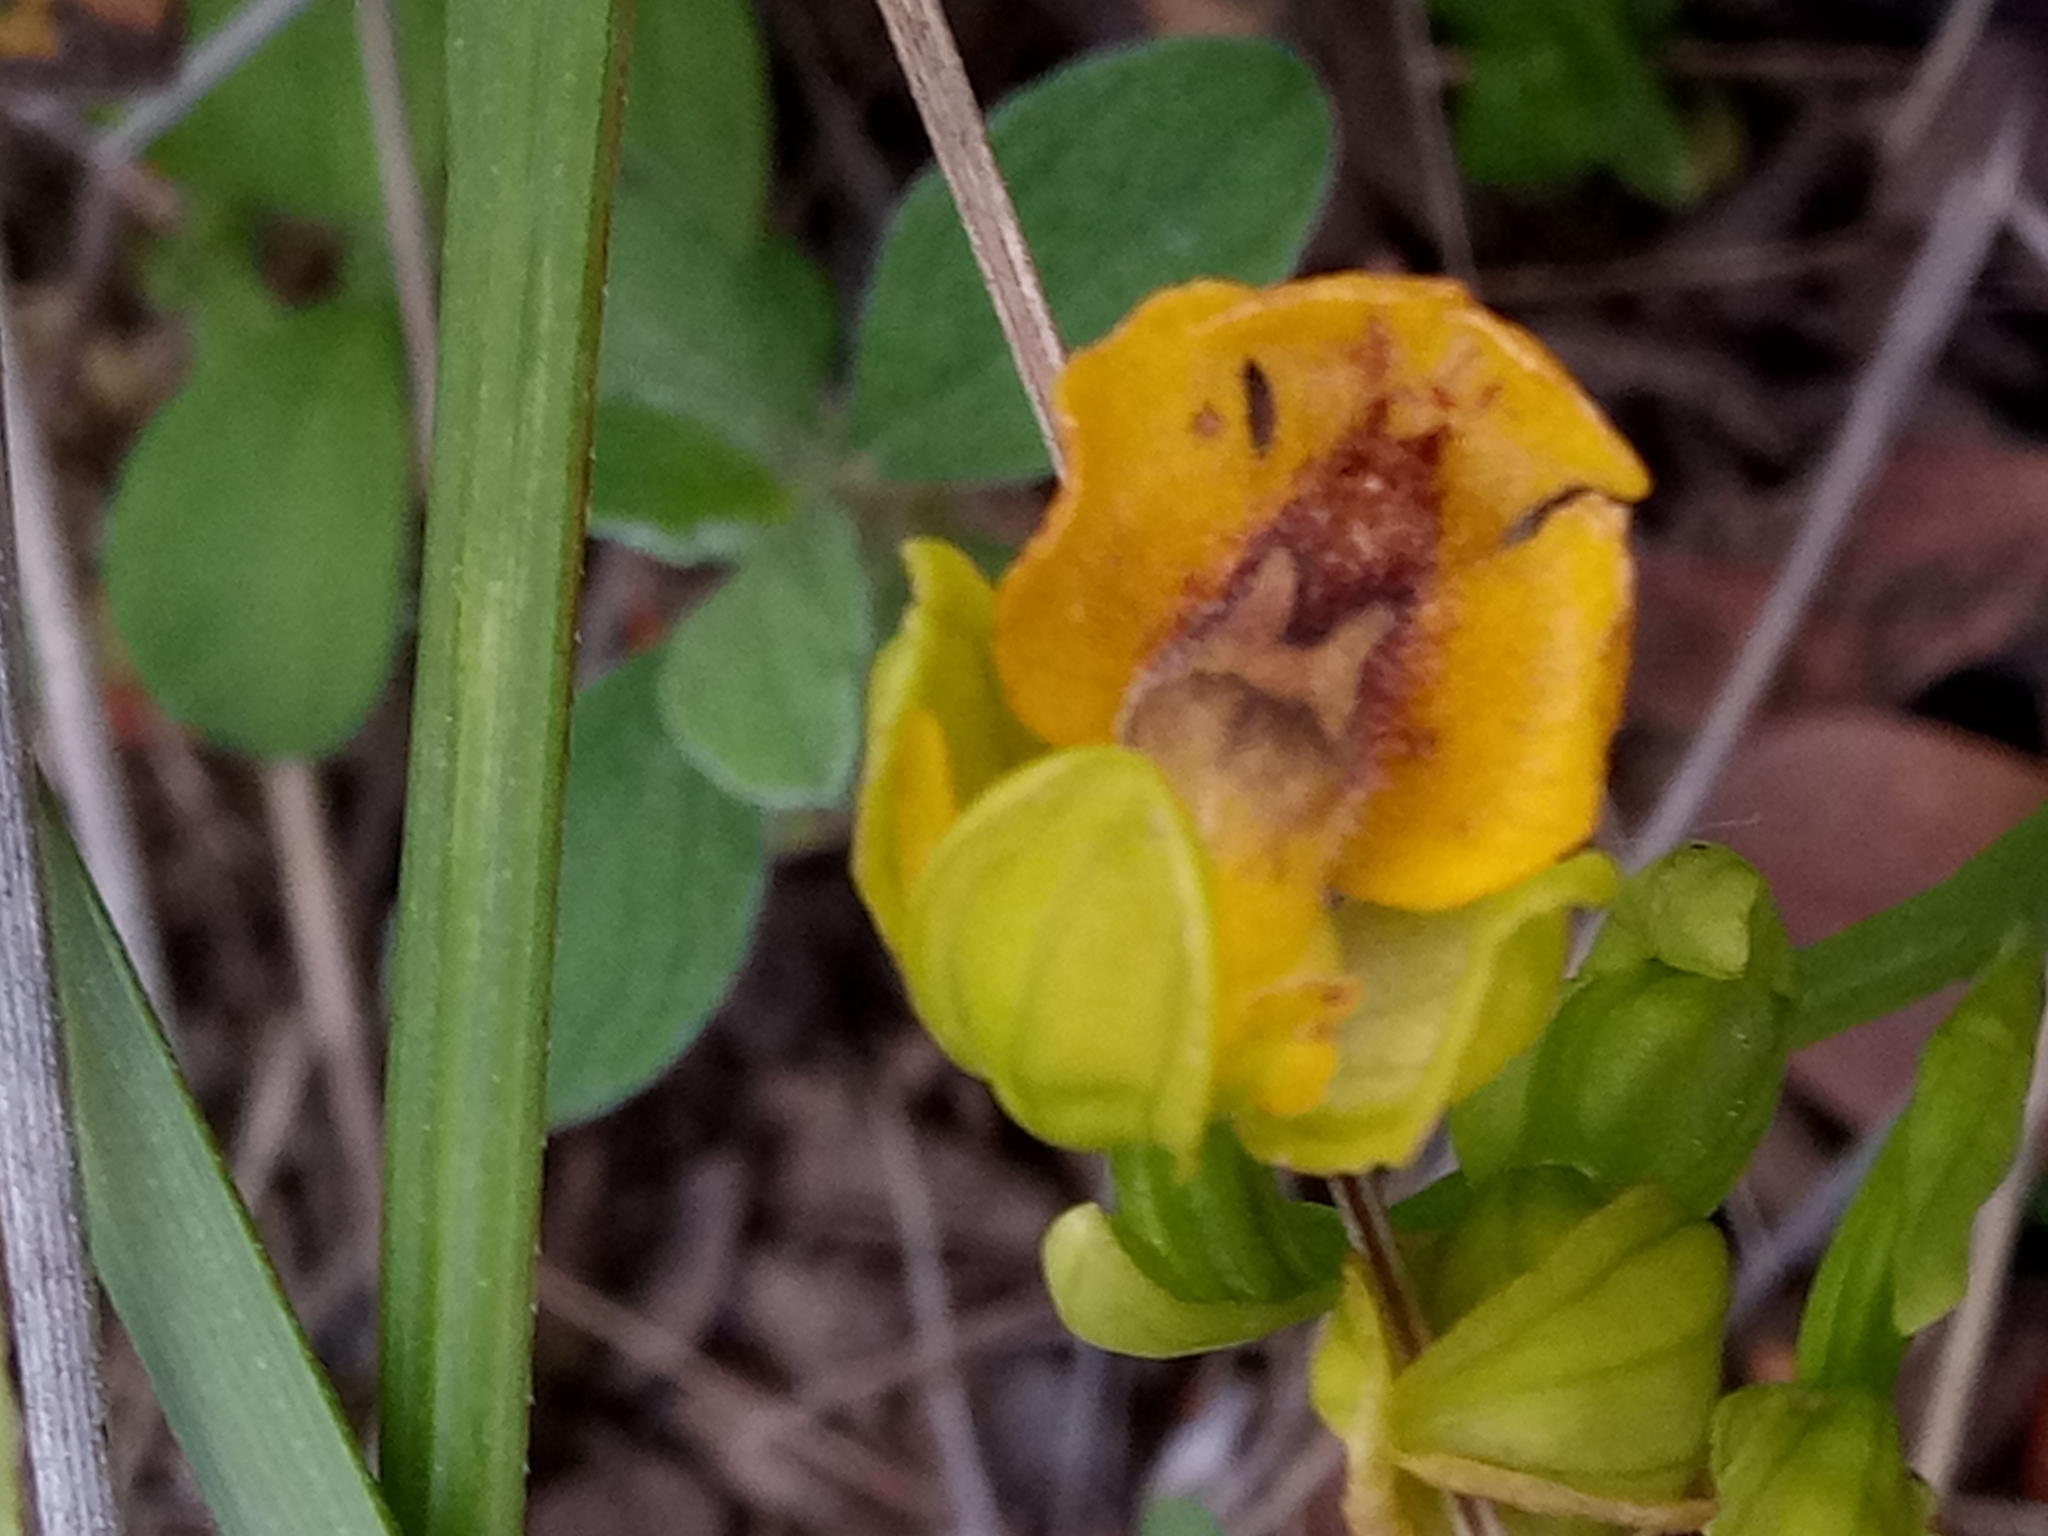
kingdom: Plantae
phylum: Tracheophyta
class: Liliopsida
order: Asparagales
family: Orchidaceae
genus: Ophrys
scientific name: Ophrys lutea
